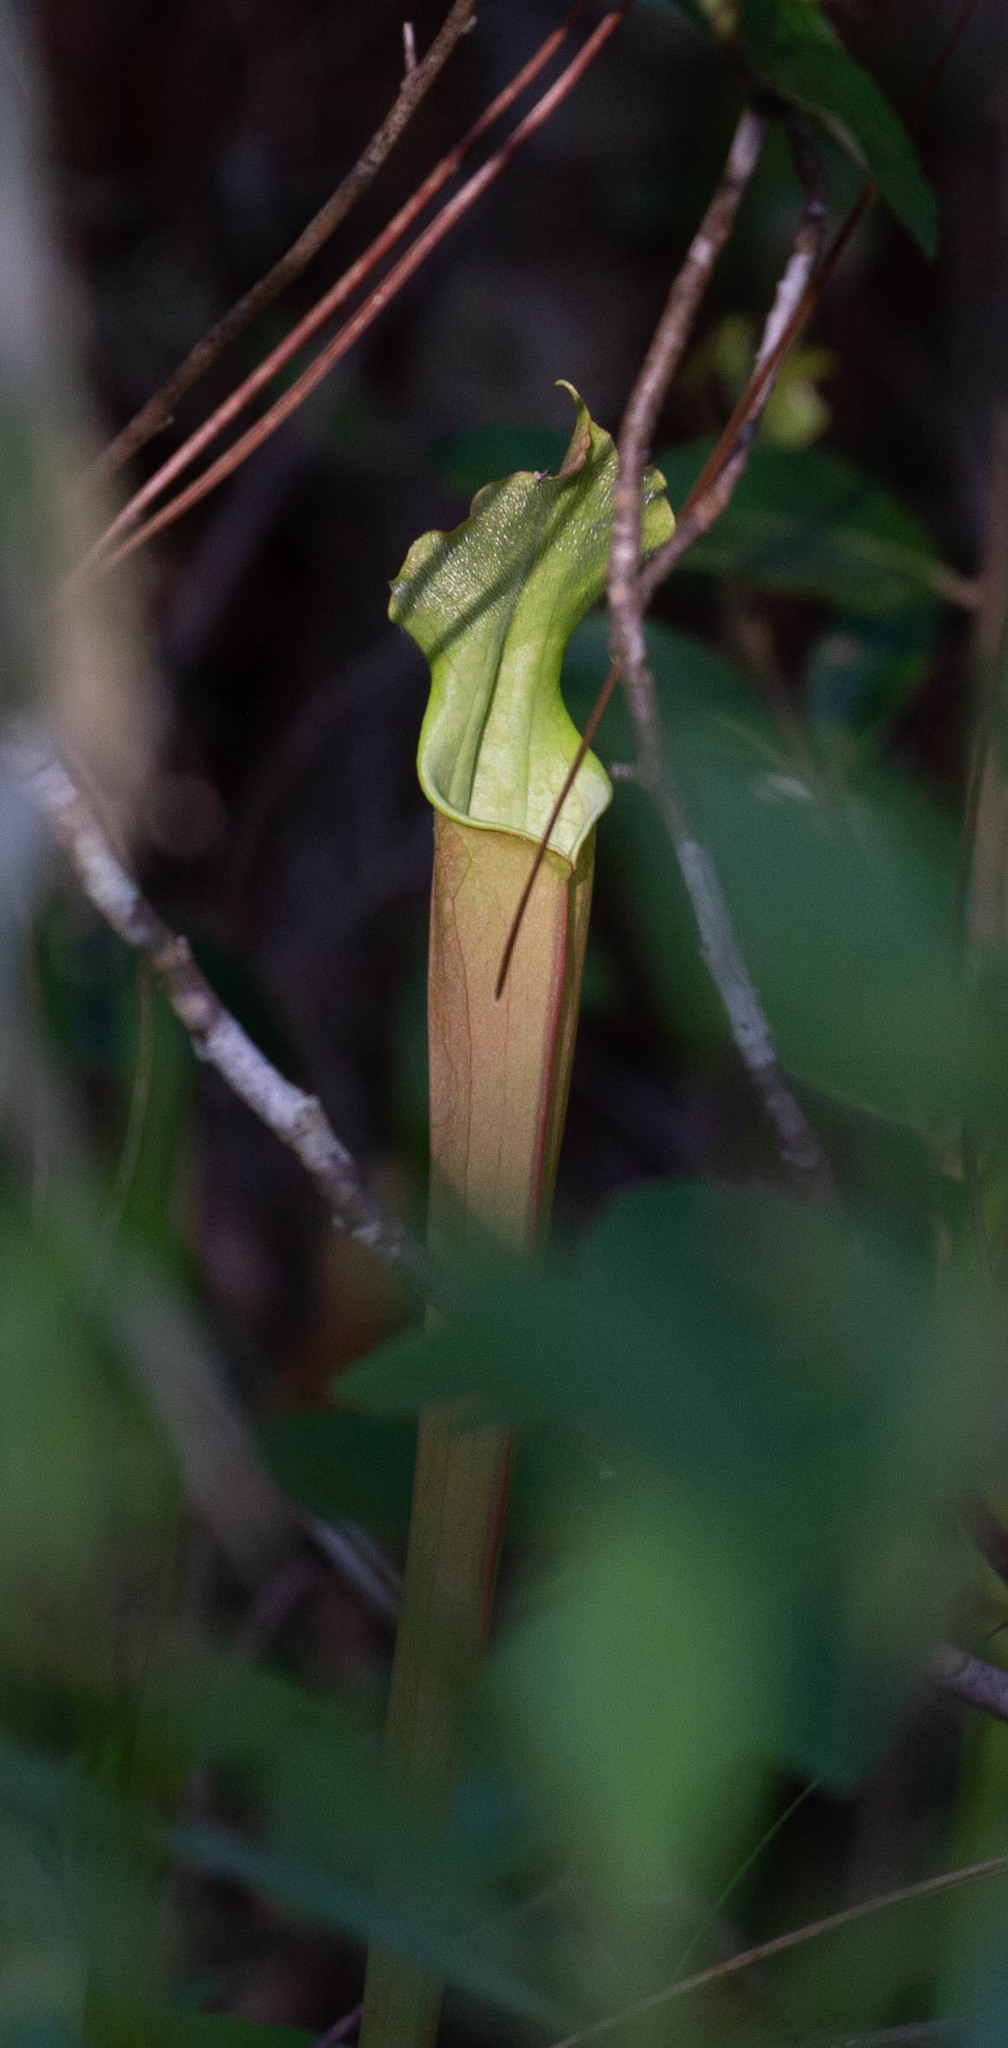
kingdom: Plantae
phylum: Tracheophyta
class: Magnoliopsida
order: Ericales
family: Sarraceniaceae
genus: Sarracenia
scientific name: Sarracenia areolata
